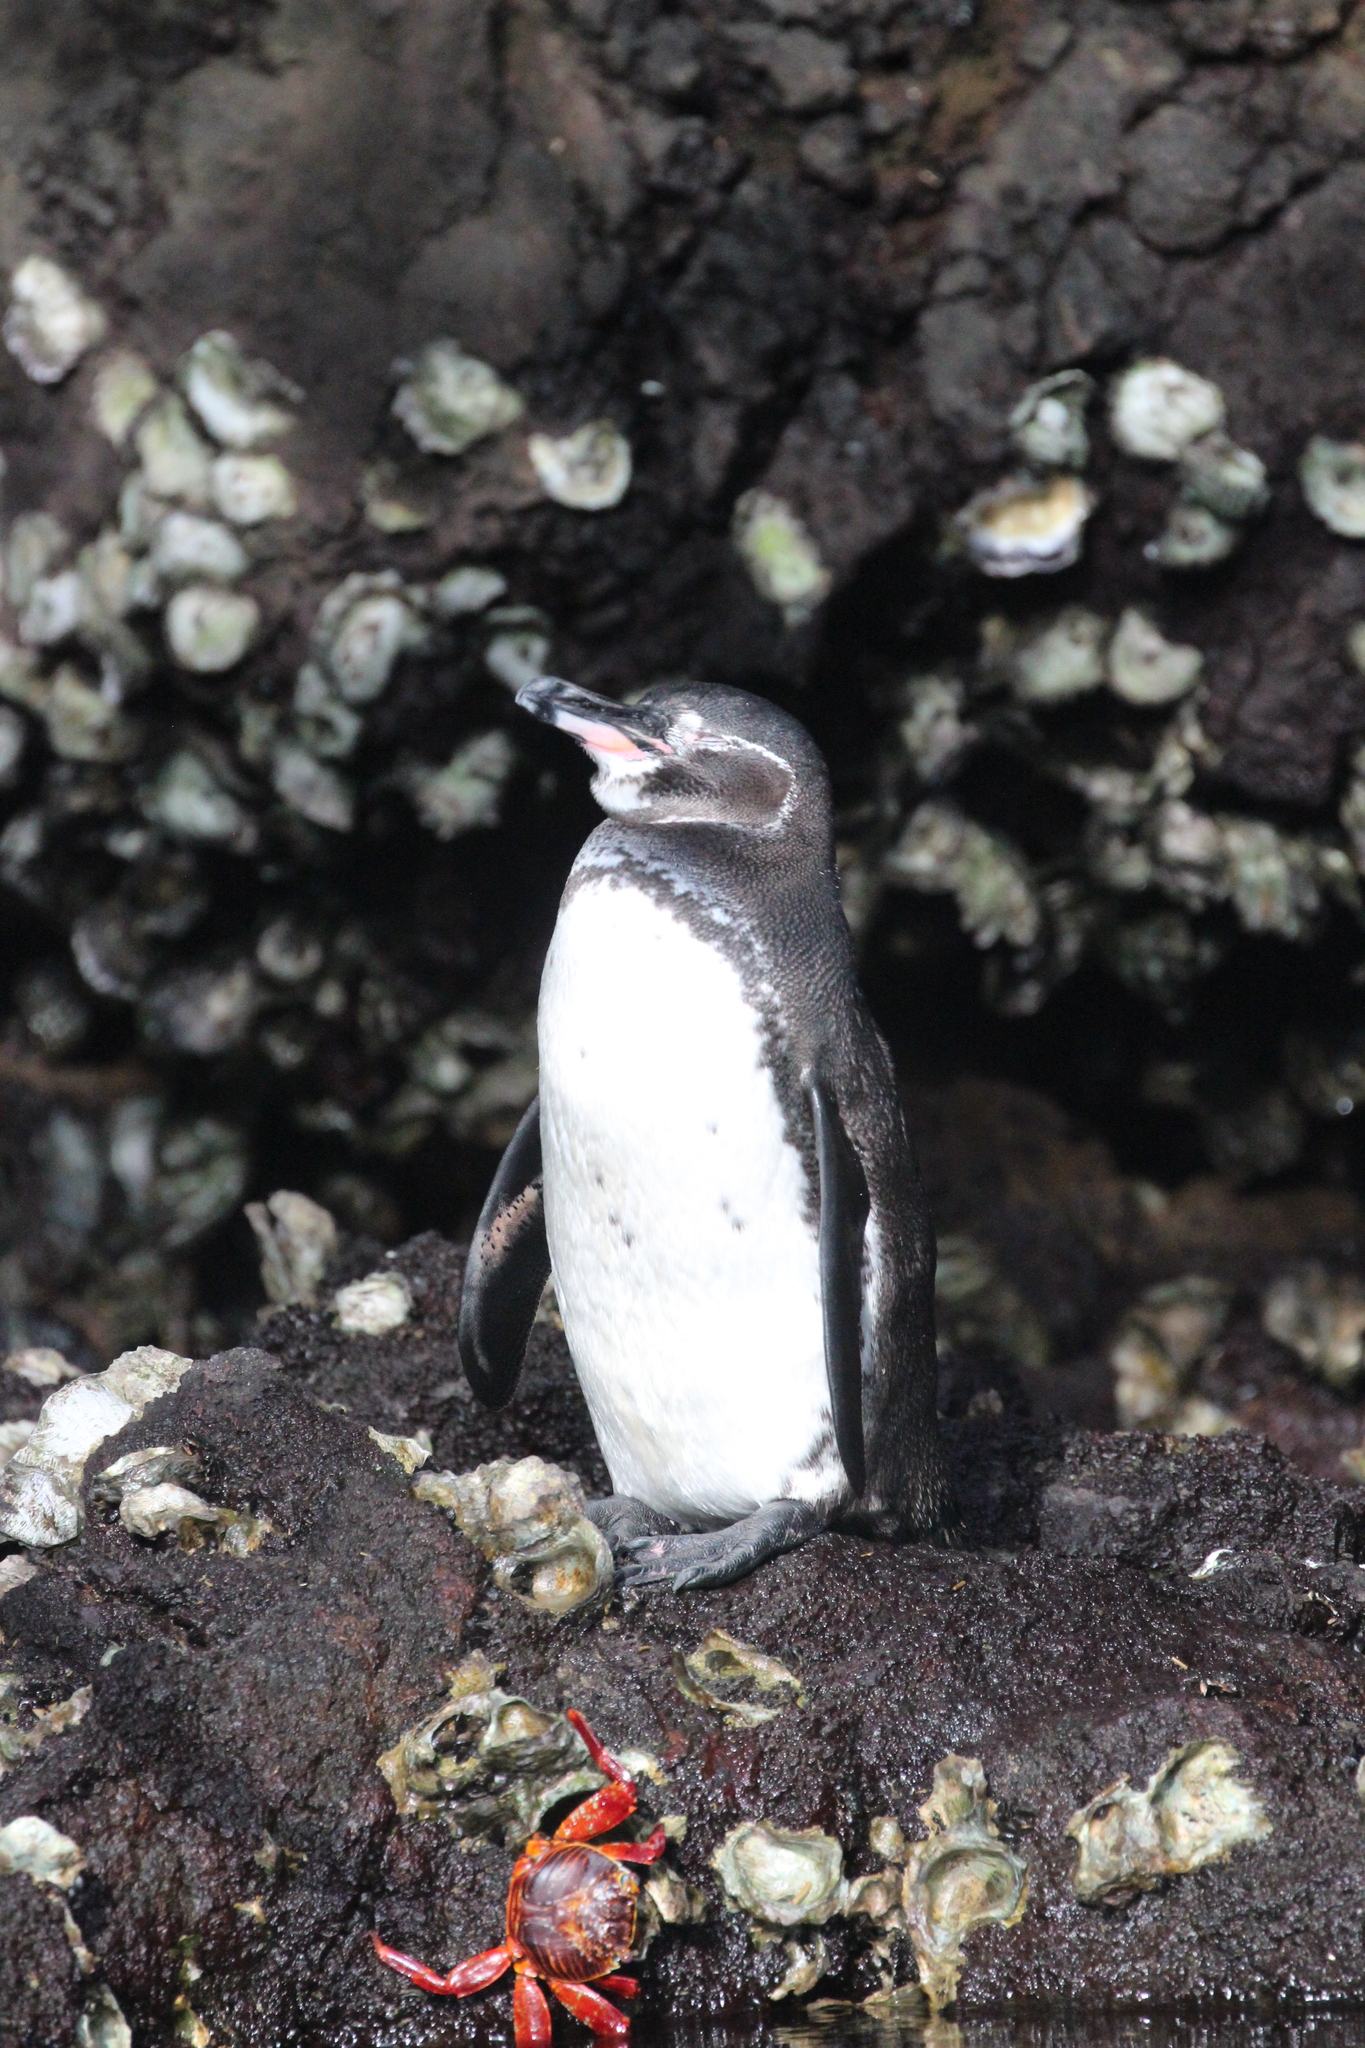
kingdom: Animalia
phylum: Chordata
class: Aves
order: Sphenisciformes
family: Spheniscidae
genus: Spheniscus
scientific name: Spheniscus mendiculus
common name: Galapagos penguin
